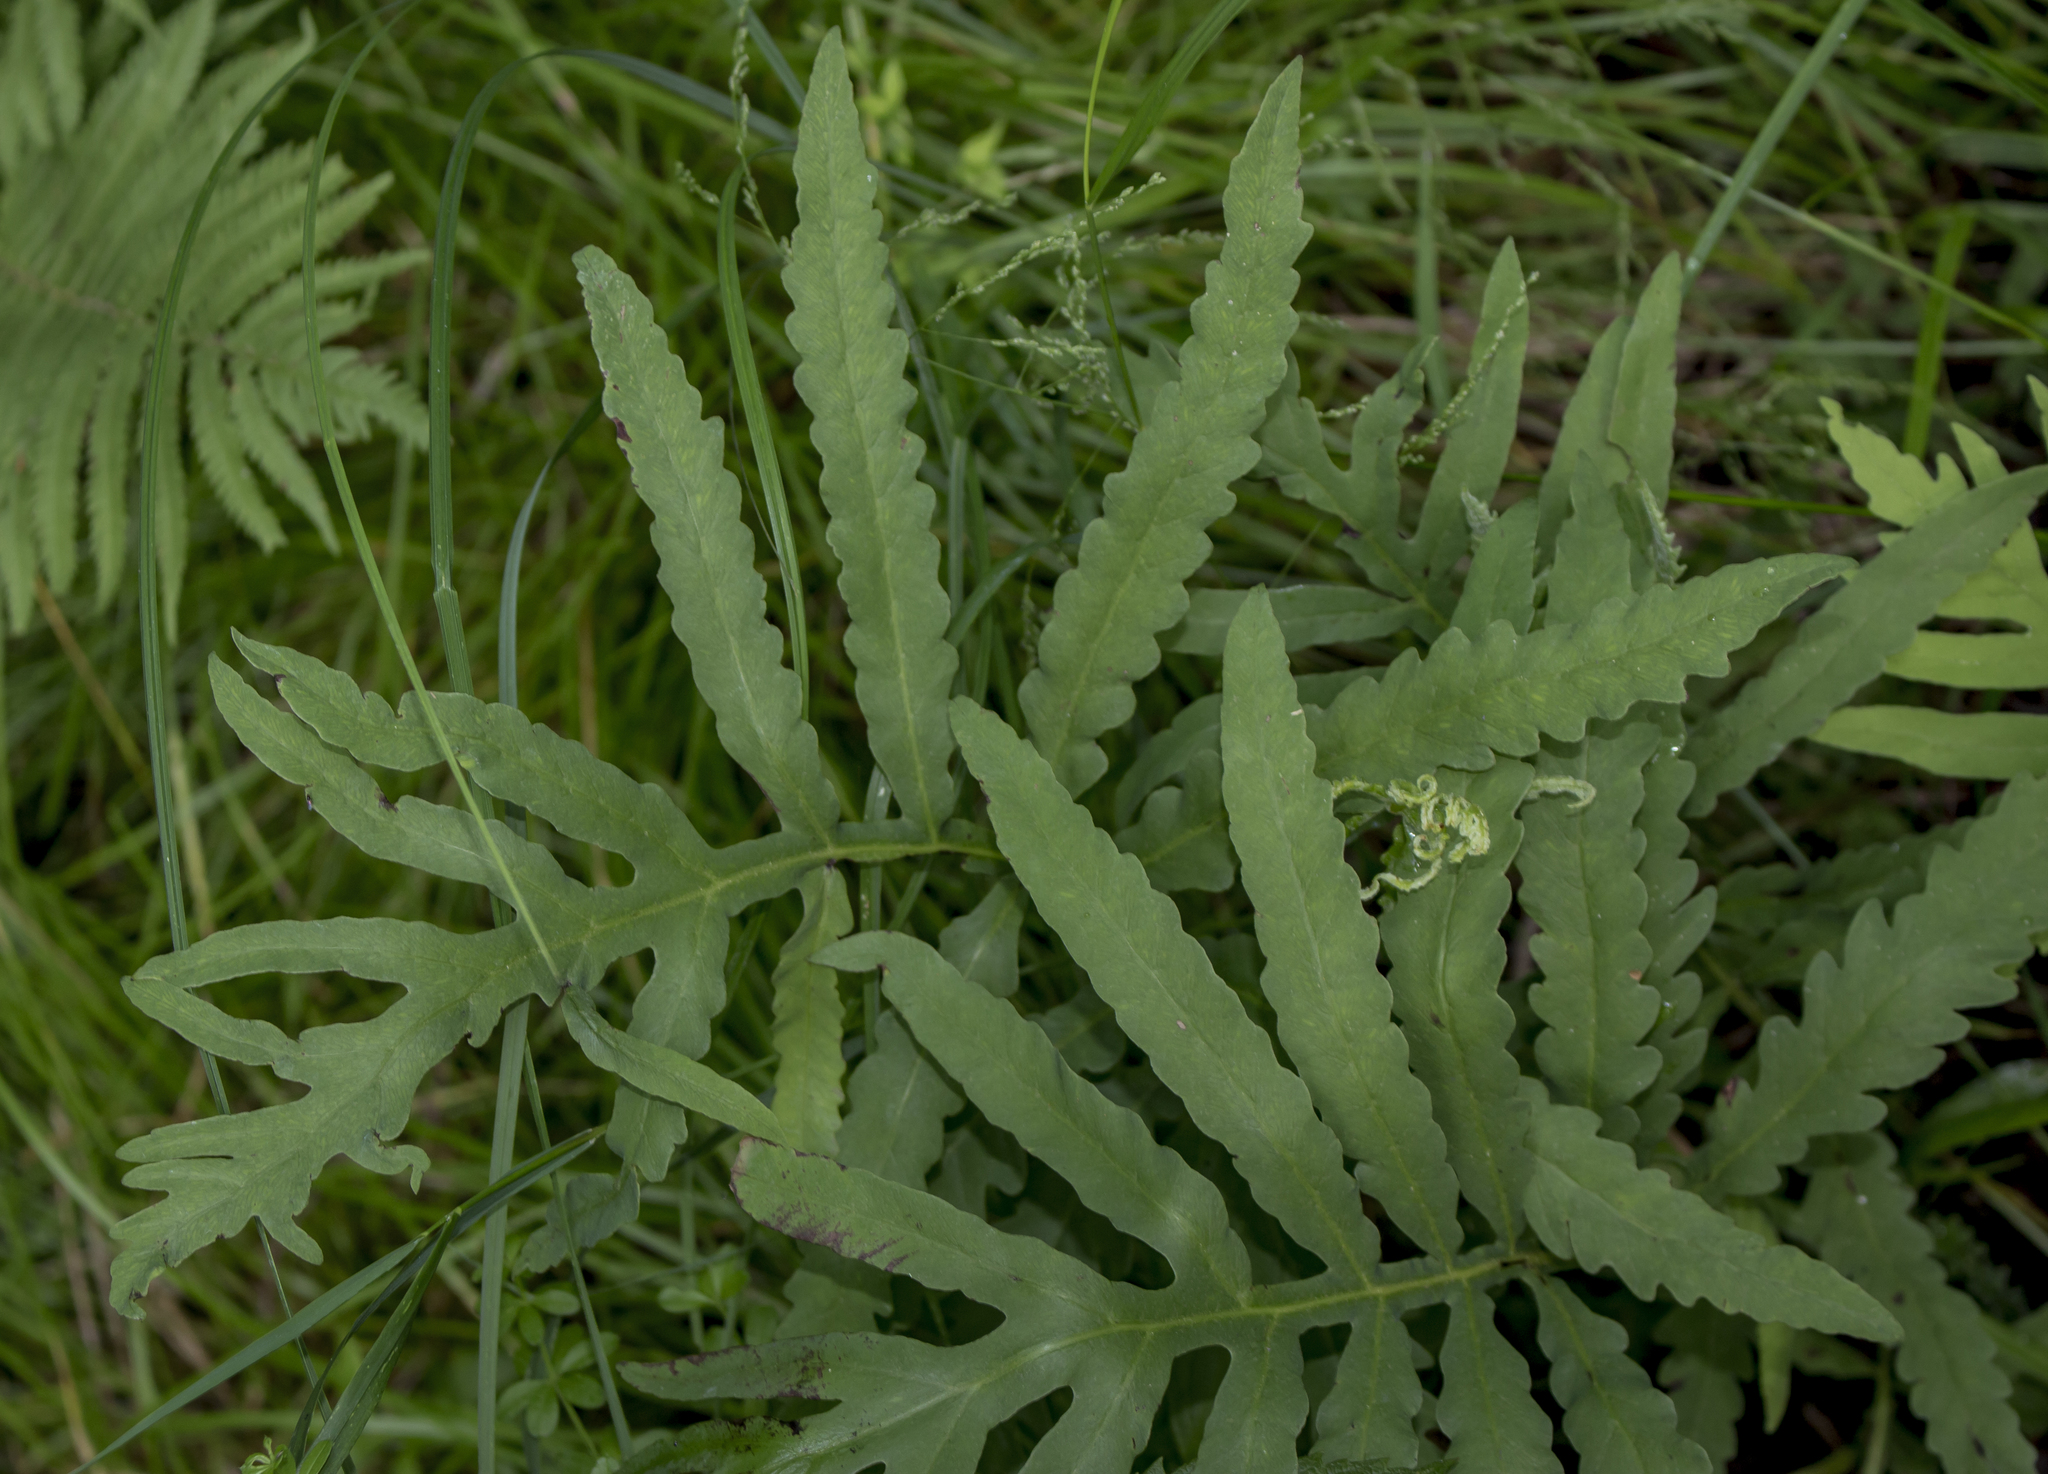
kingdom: Plantae
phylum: Tracheophyta
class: Polypodiopsida
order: Polypodiales
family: Onocleaceae
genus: Onoclea
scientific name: Onoclea sensibilis
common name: Sensitive fern
